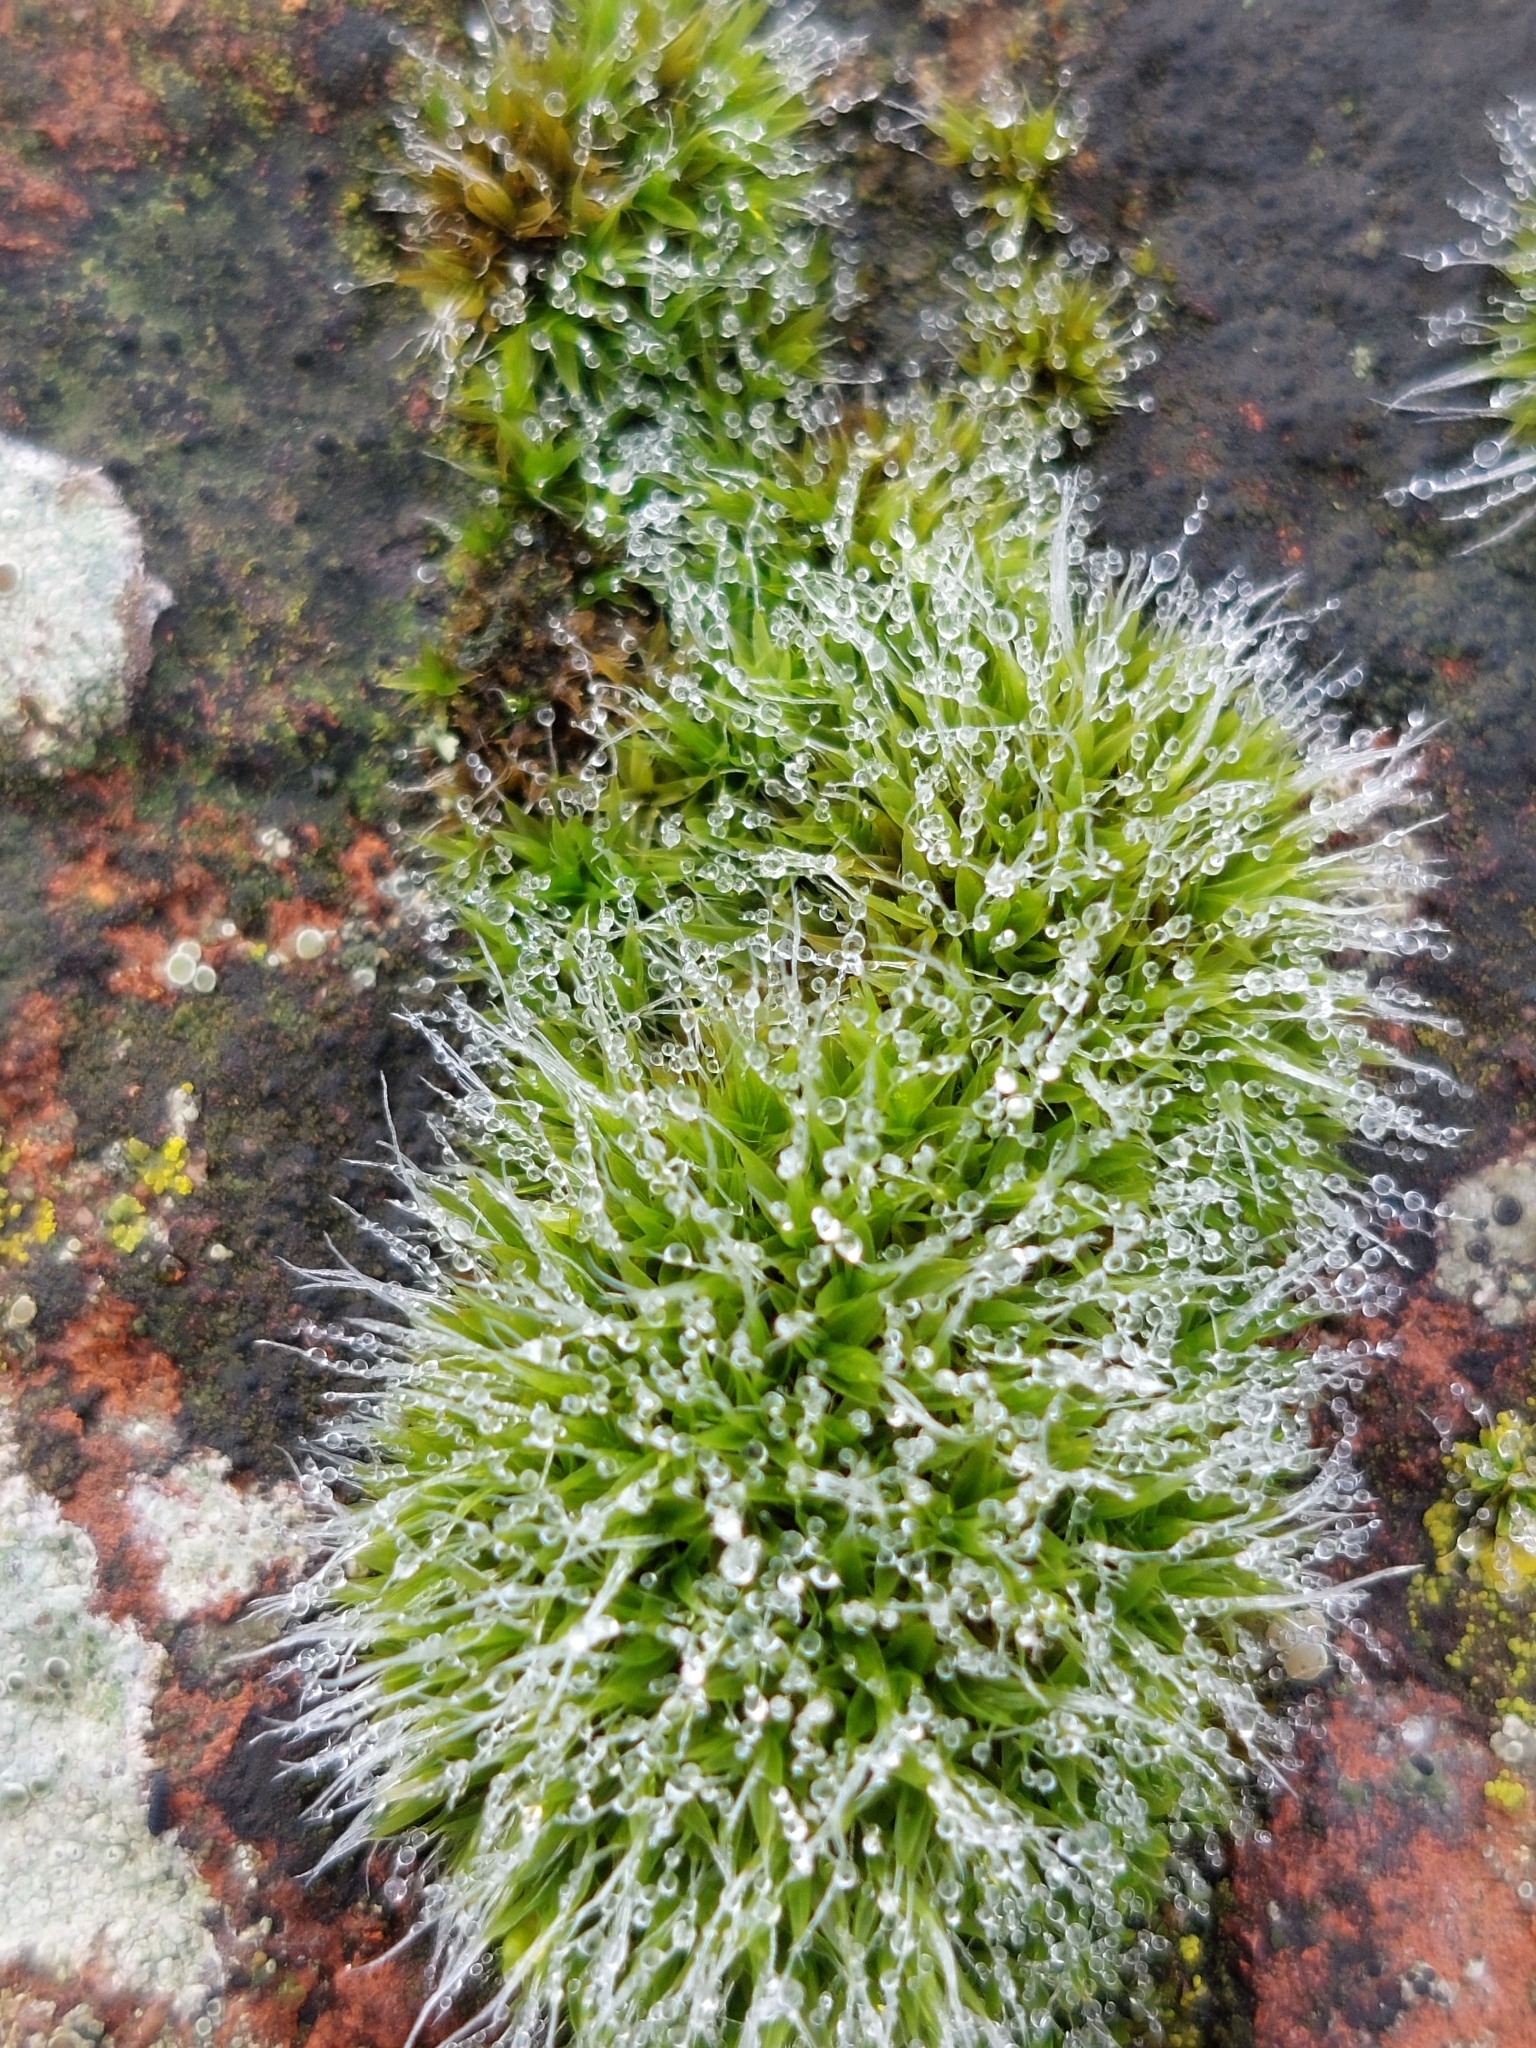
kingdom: Plantae
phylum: Bryophyta
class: Bryopsida
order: Grimmiales
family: Grimmiaceae
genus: Grimmia
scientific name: Grimmia pulvinata
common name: Grey-cushioned grimmia
